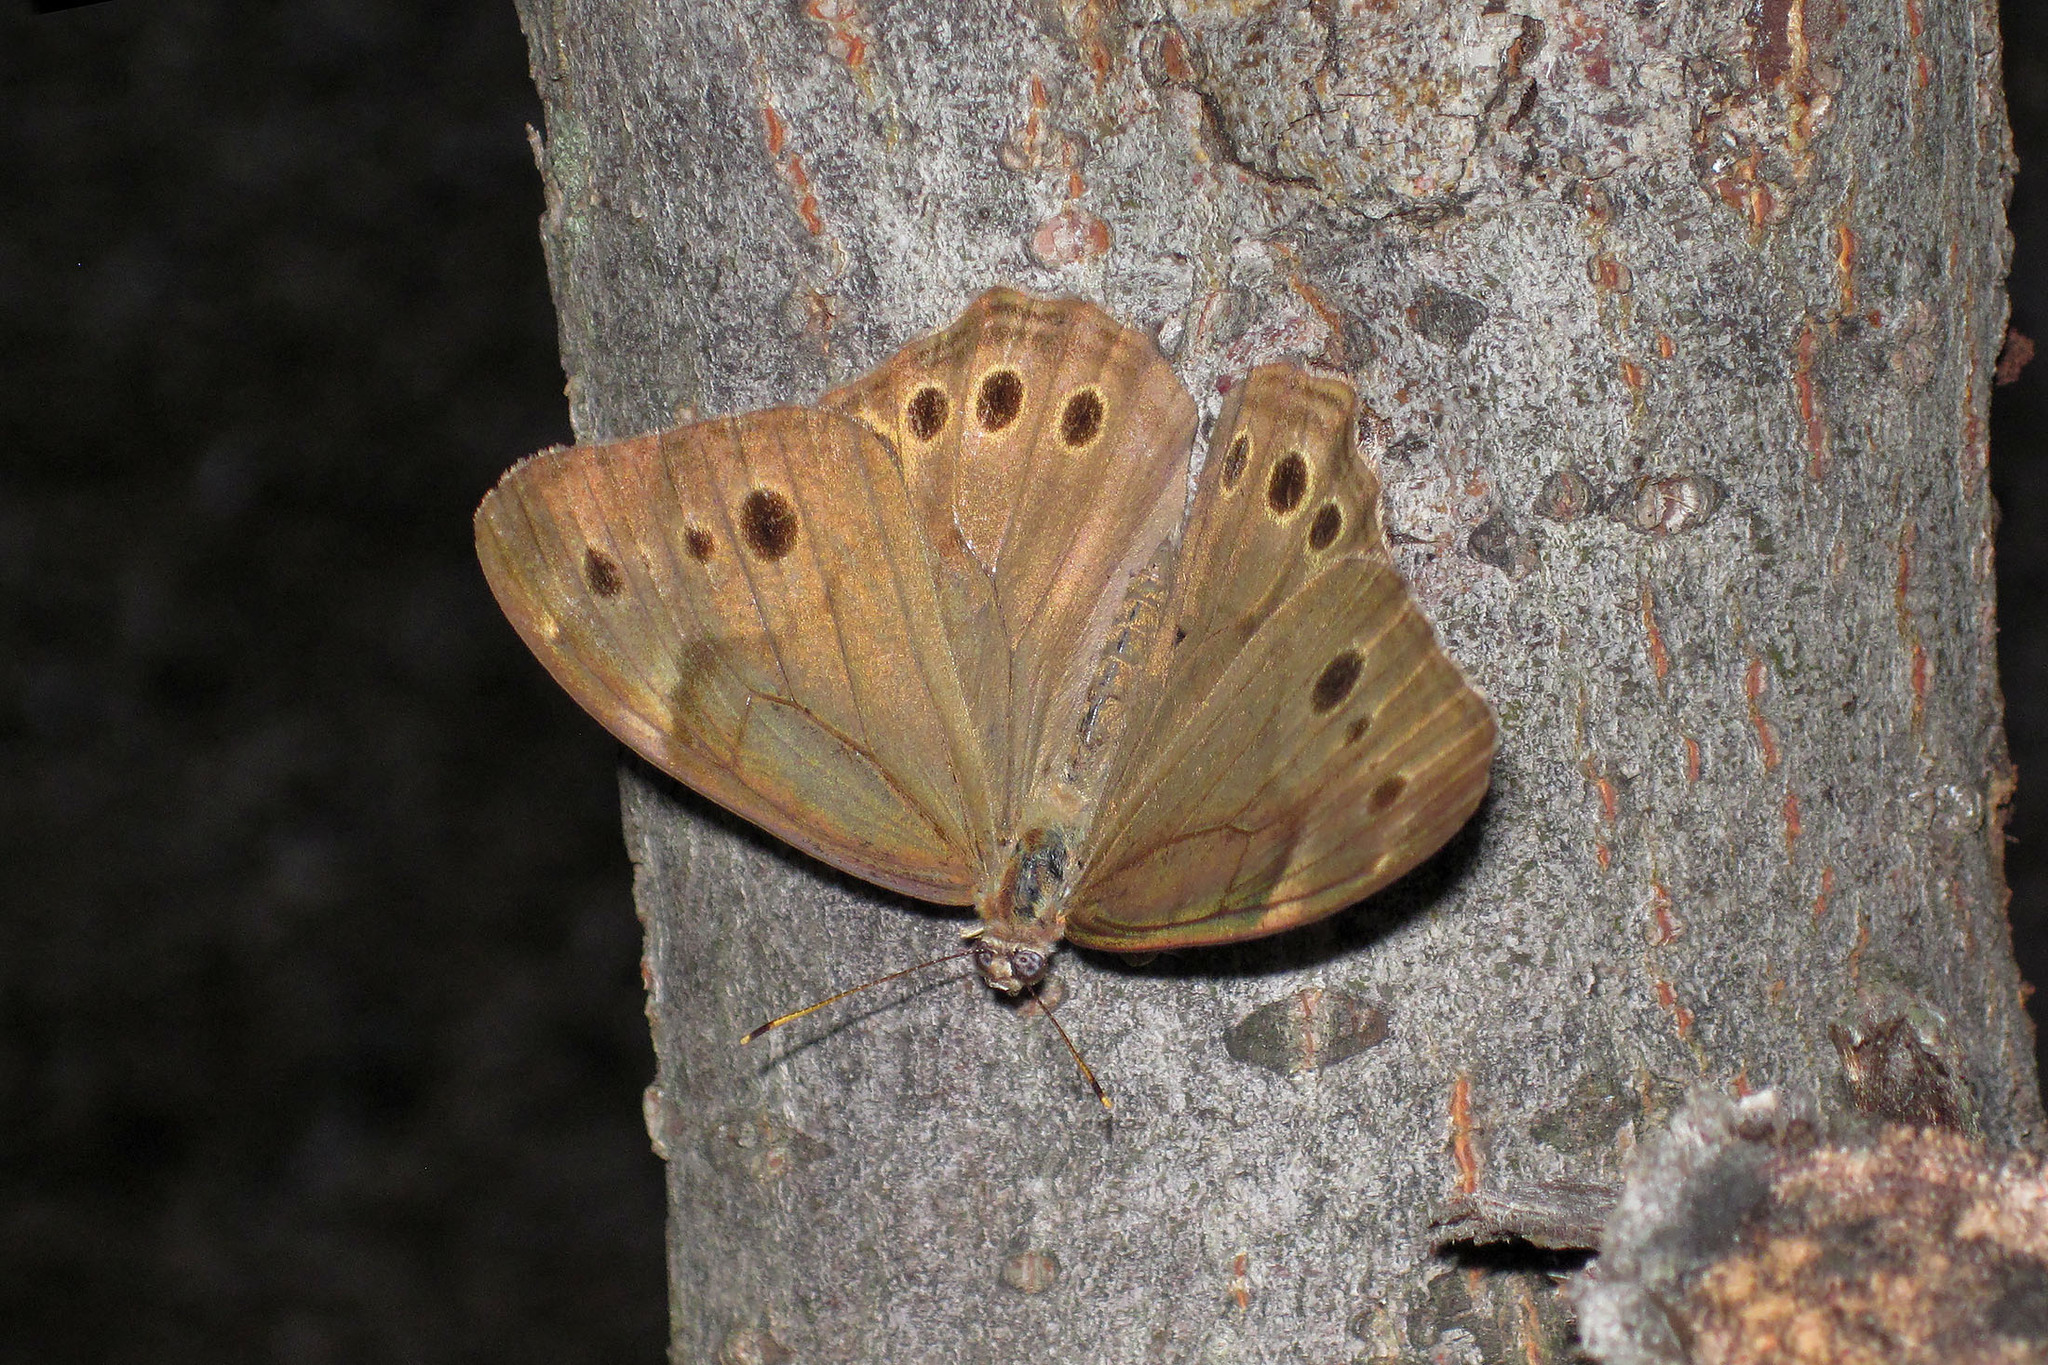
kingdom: Animalia
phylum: Arthropoda
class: Insecta
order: Lepidoptera
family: Nymphalidae
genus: Lethe
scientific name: Lethe anthedon
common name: Northern pearly-eye
